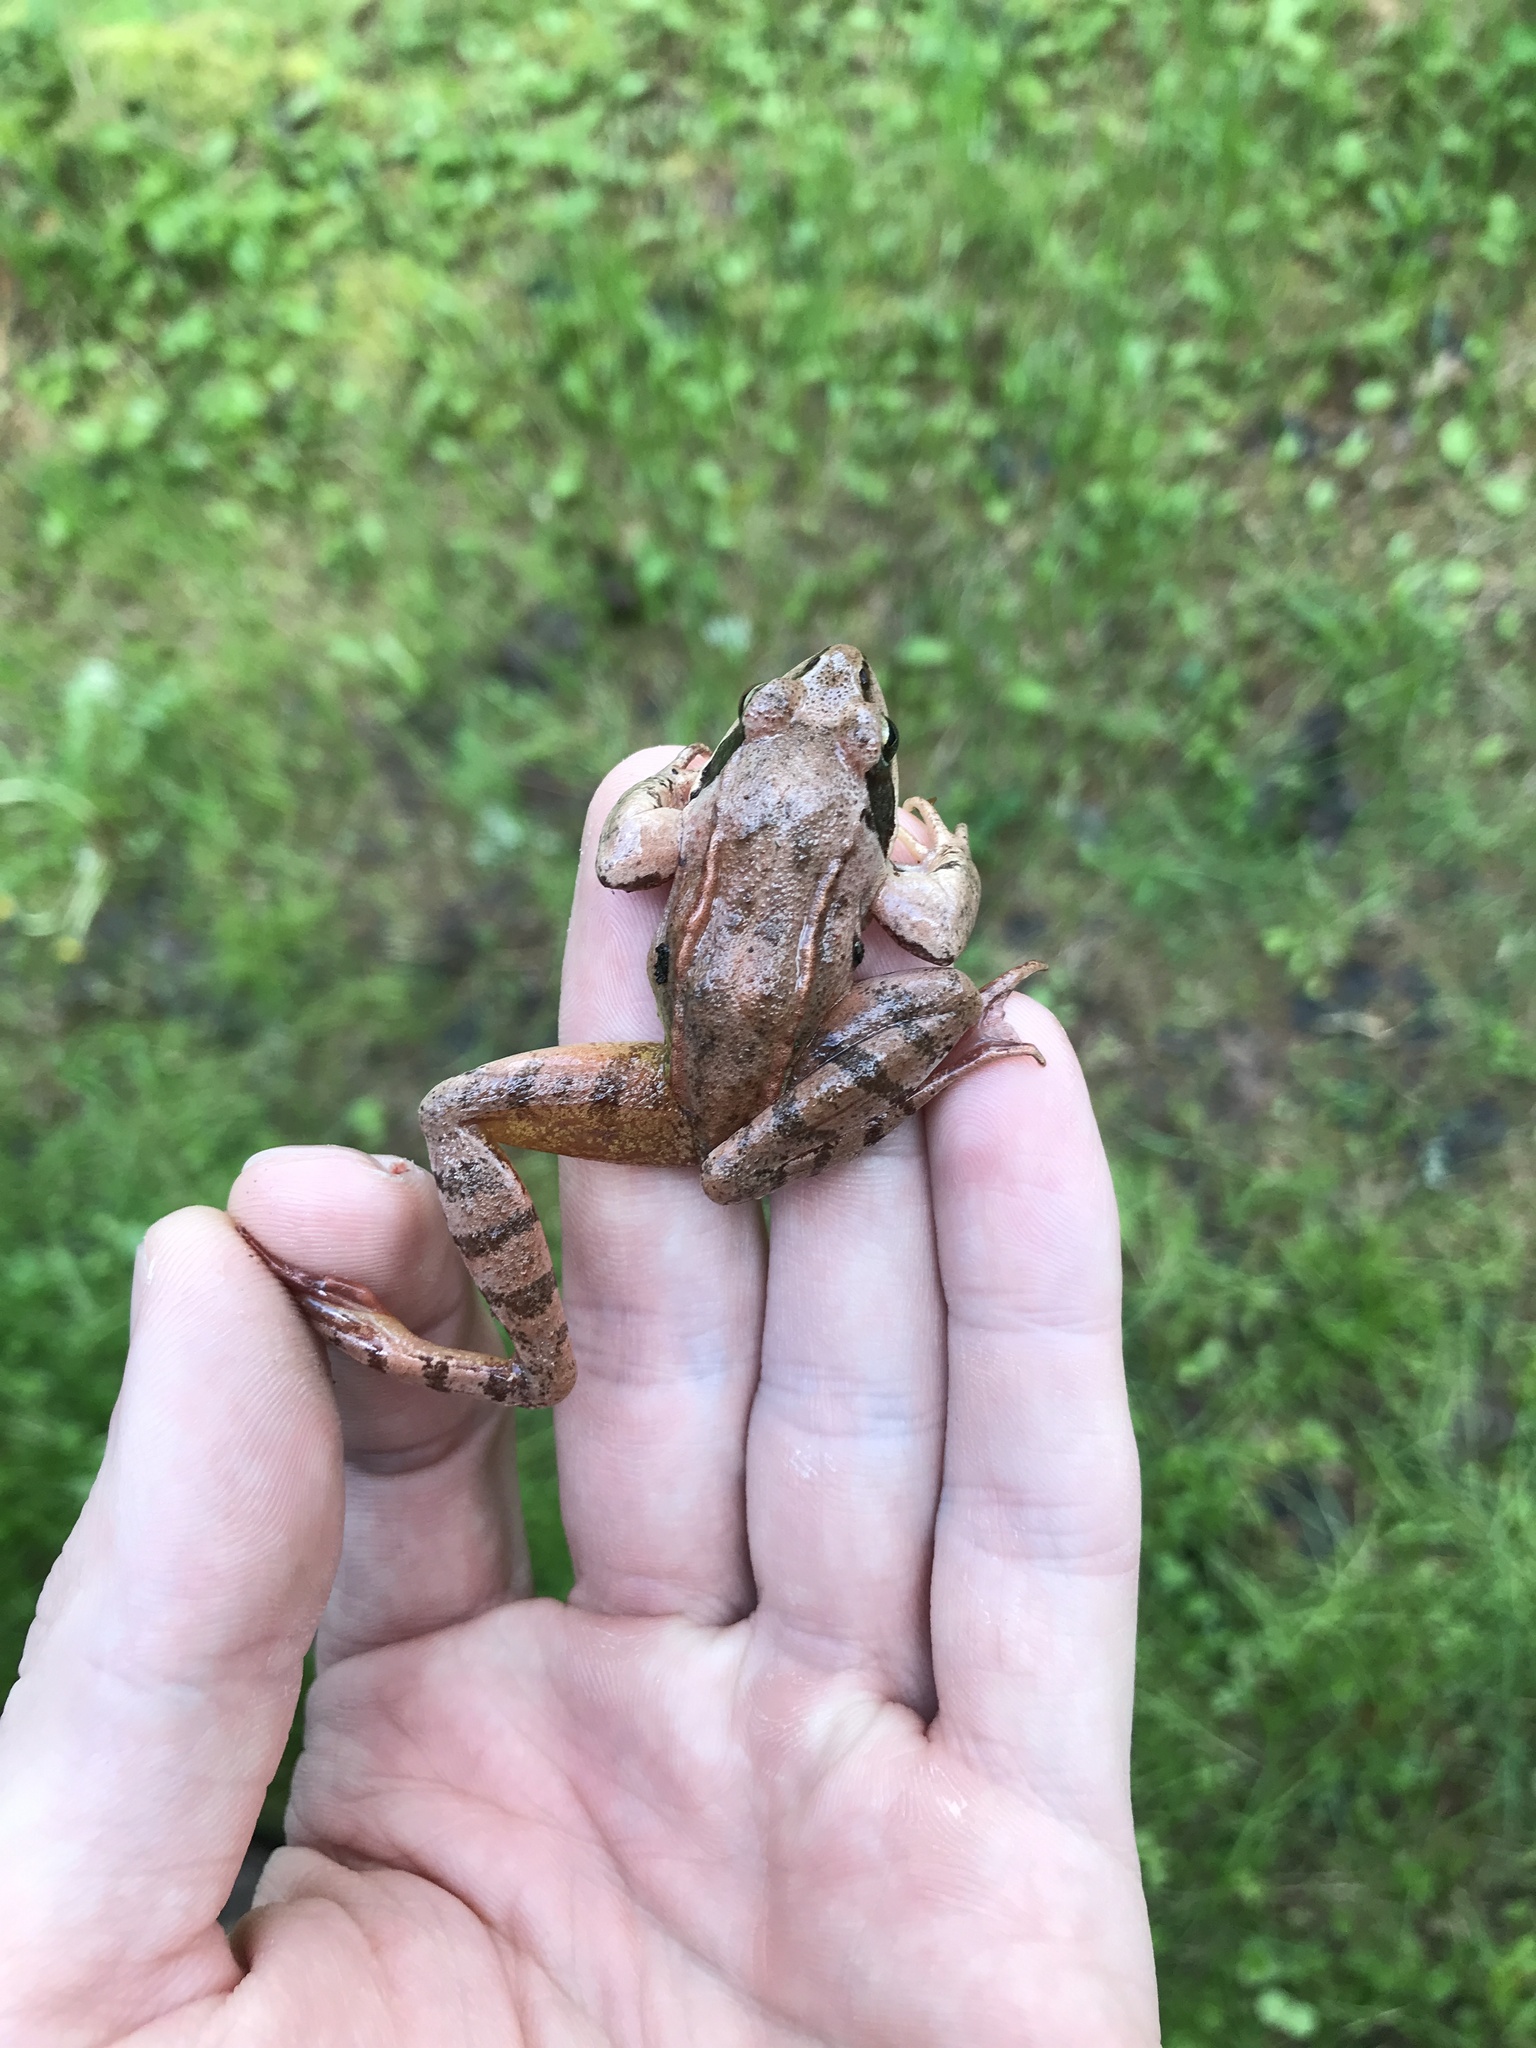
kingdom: Animalia
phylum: Chordata
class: Amphibia
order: Anura
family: Ranidae
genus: Rana
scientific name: Rana dalmatina
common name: Agile frog
